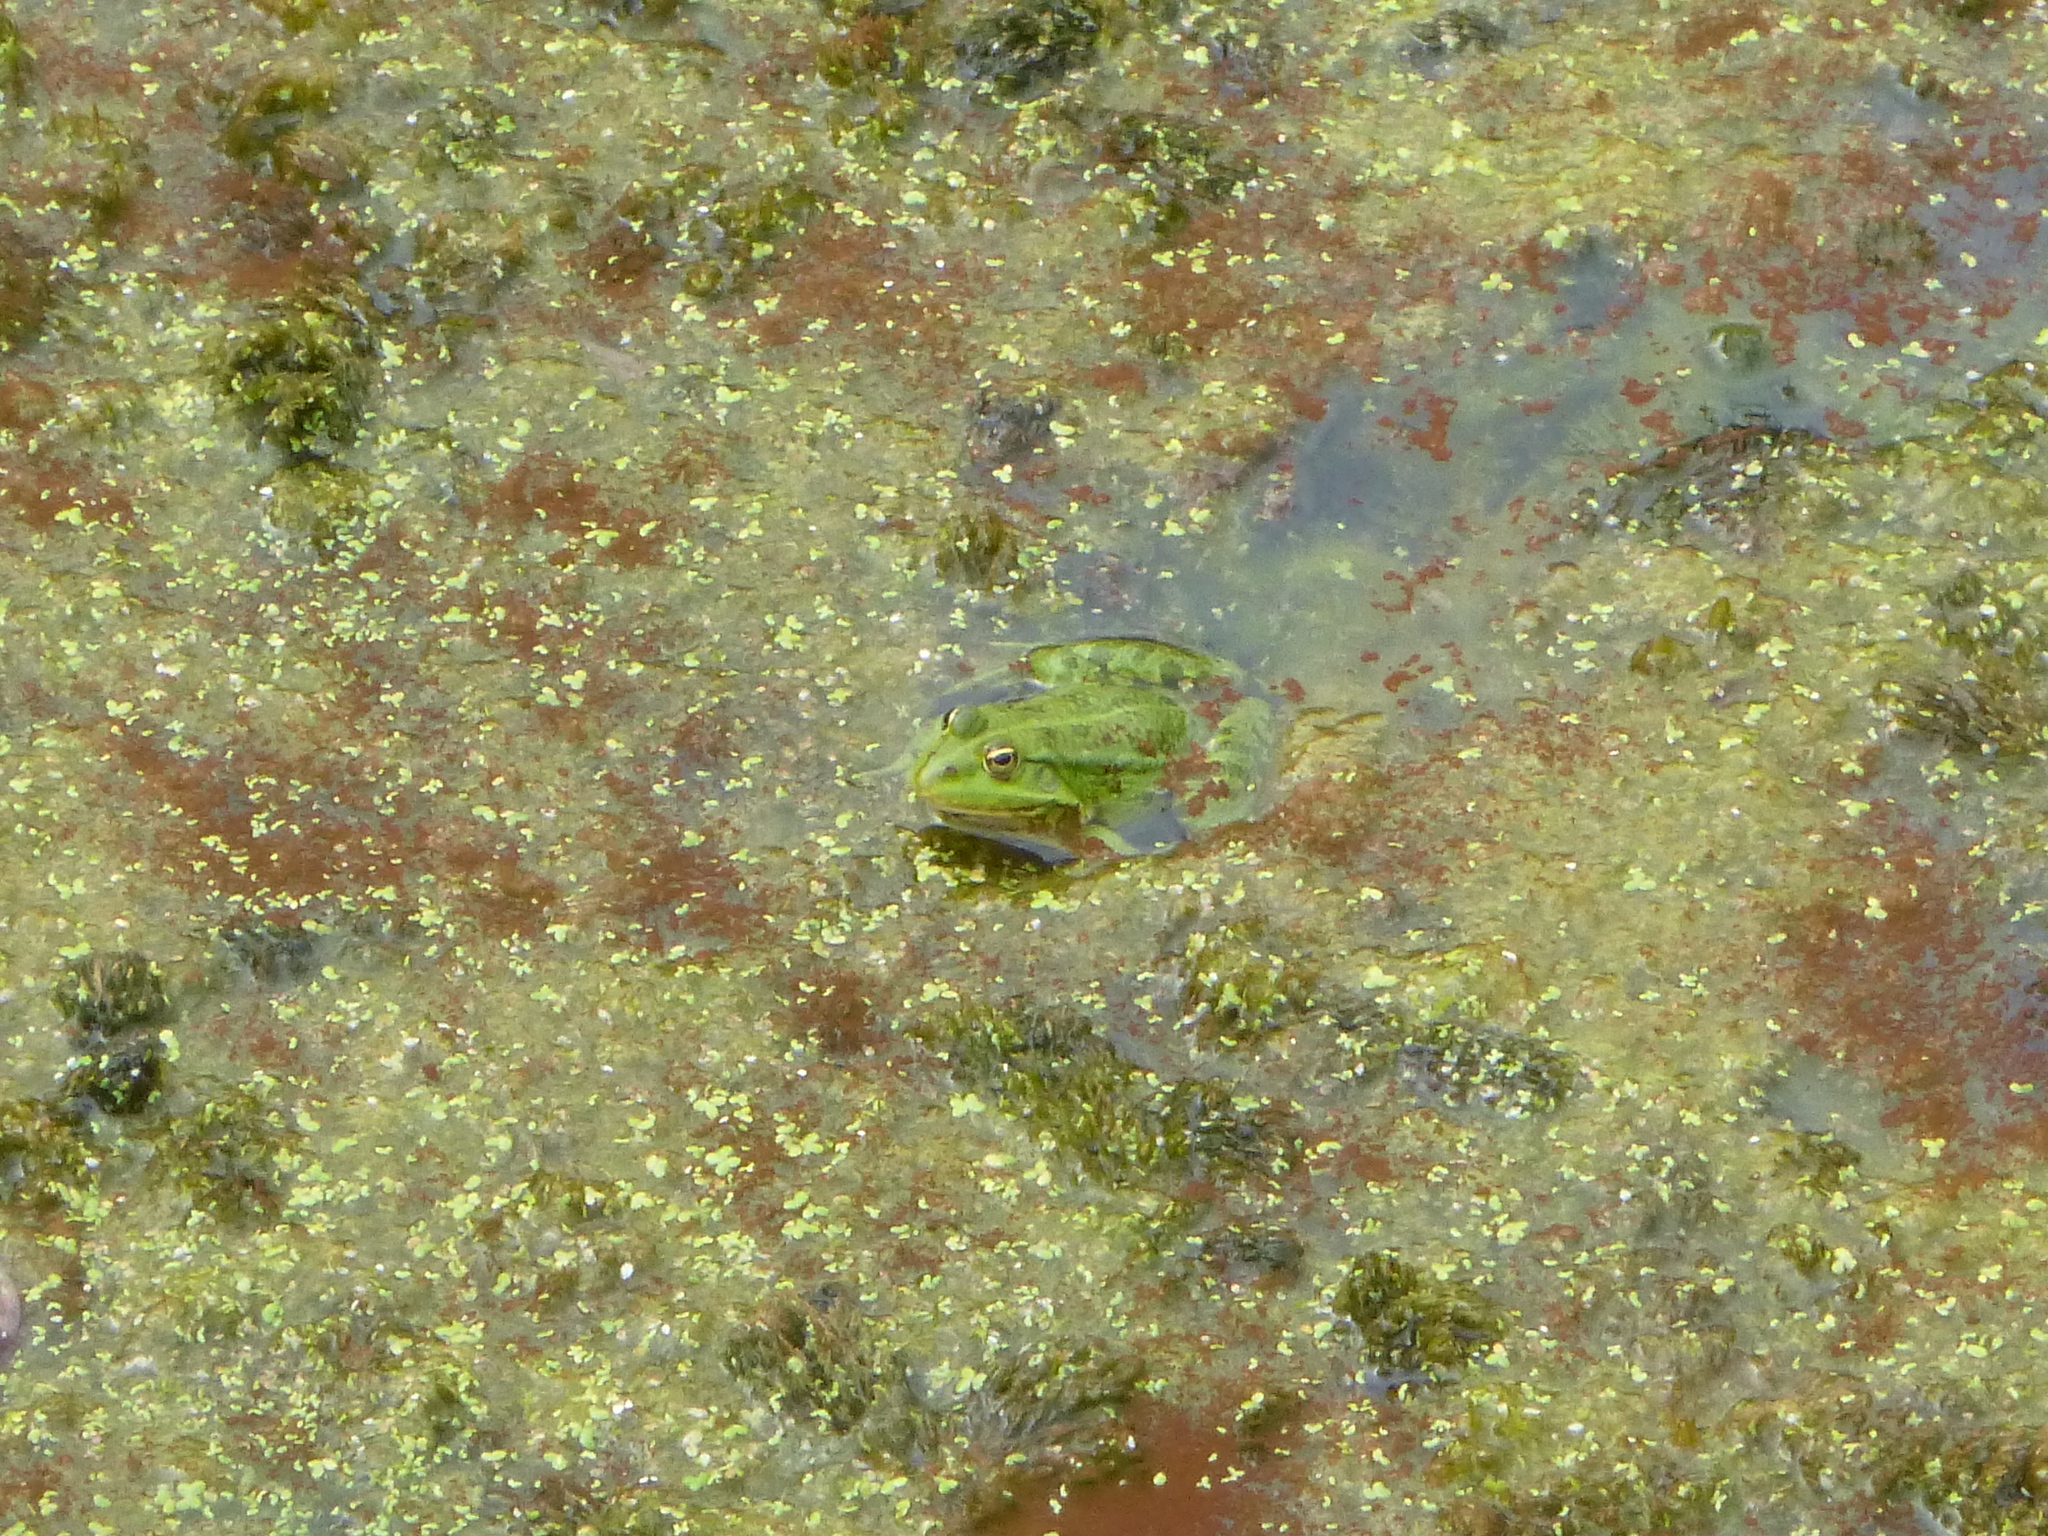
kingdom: Animalia
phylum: Chordata
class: Amphibia
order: Anura
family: Ranidae
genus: Pelophylax
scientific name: Pelophylax
